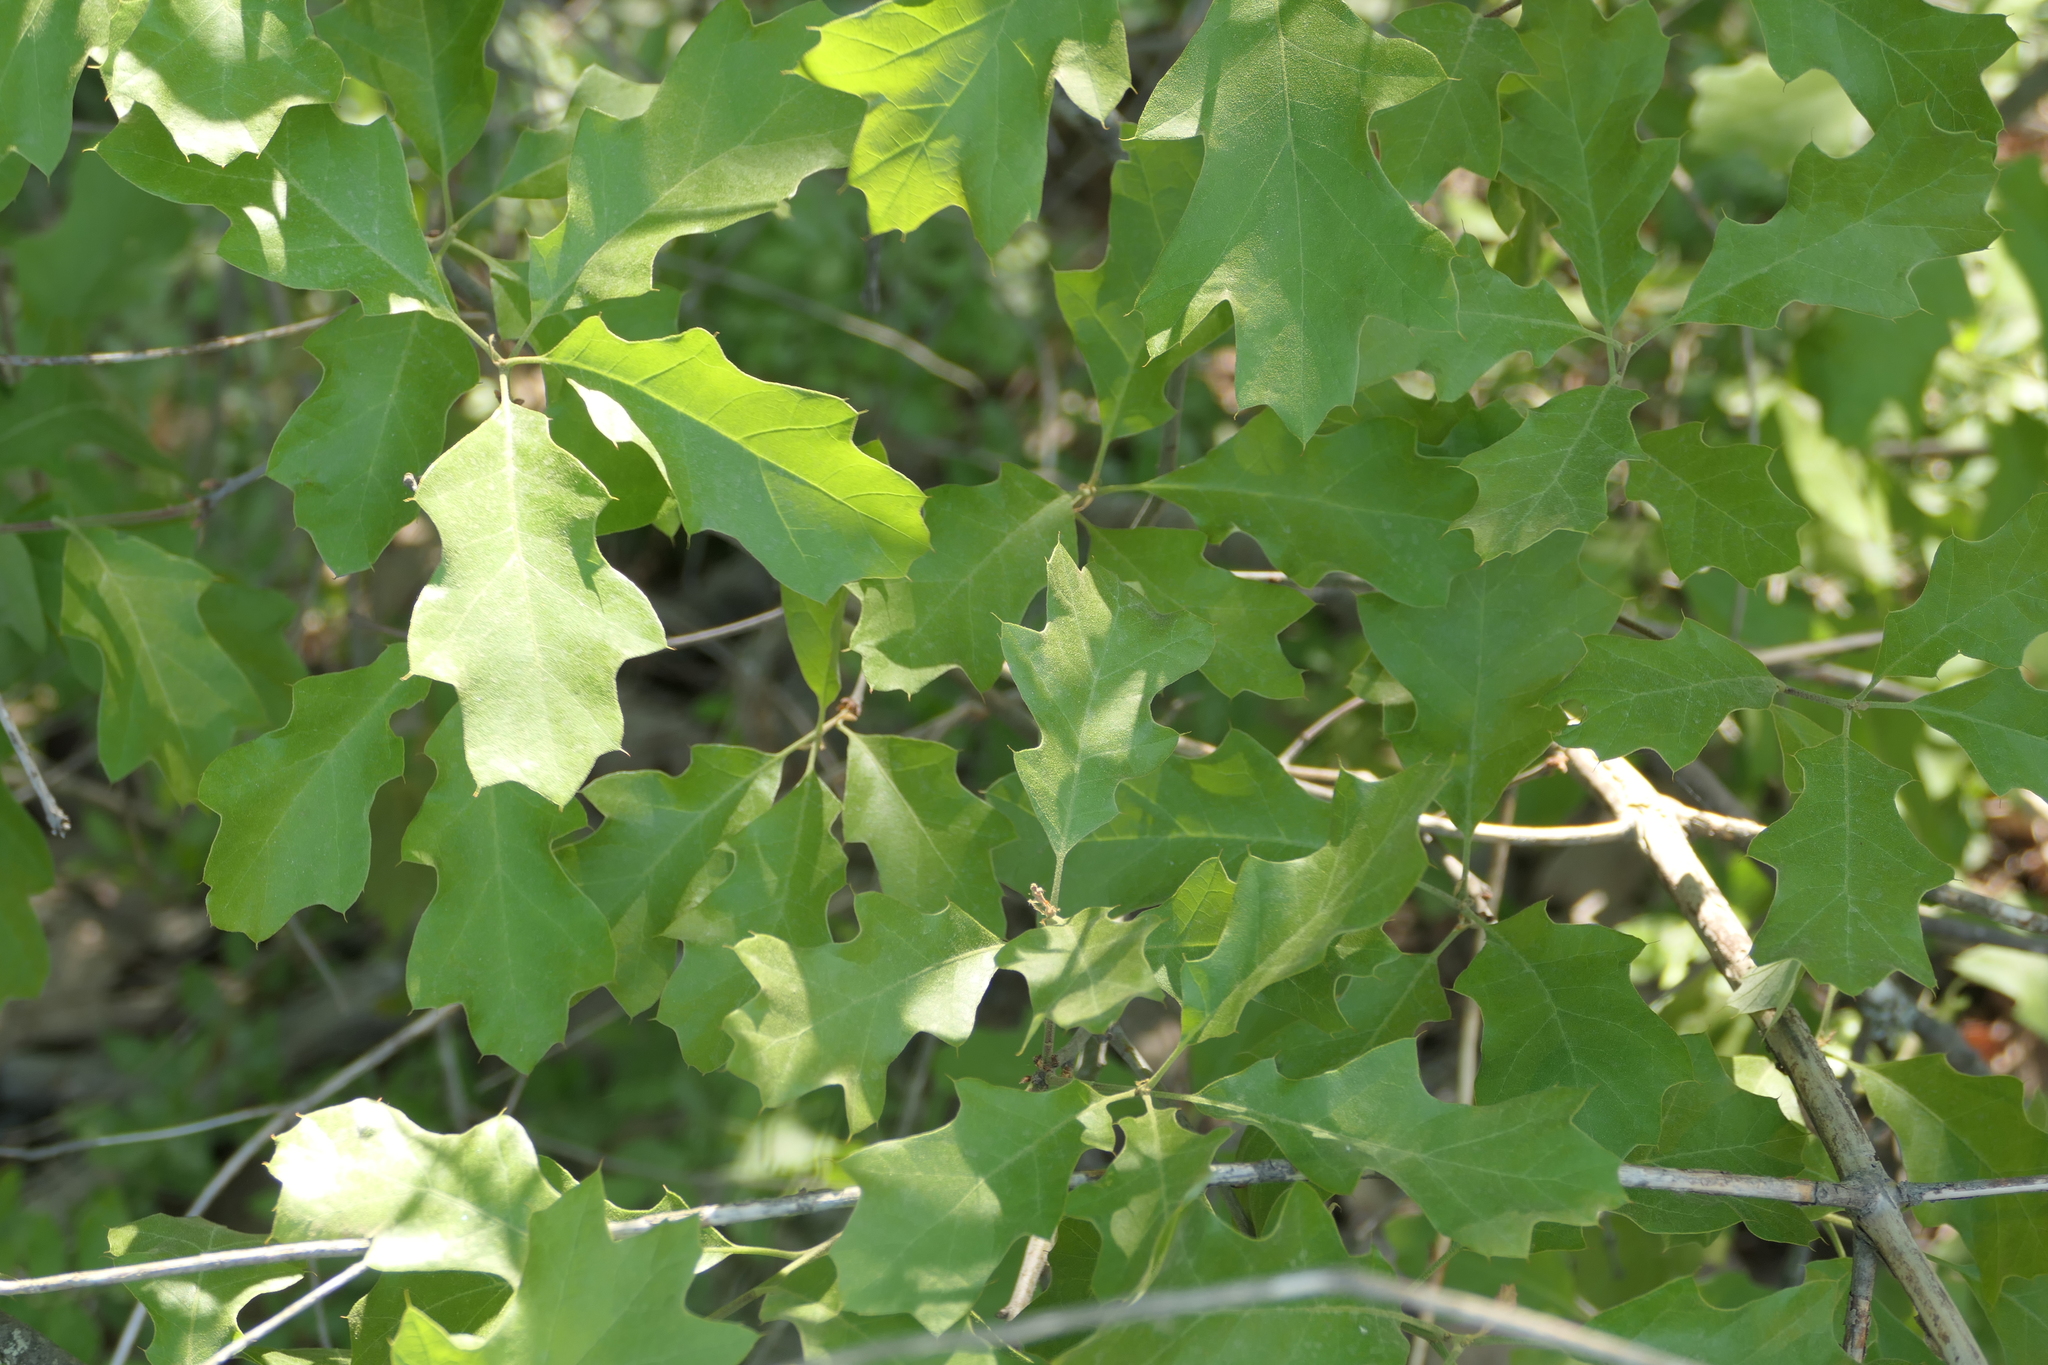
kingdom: Plantae
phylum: Tracheophyta
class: Magnoliopsida
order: Fagales
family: Fagaceae
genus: Quercus
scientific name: Quercus ilicifolia
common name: Bear oak
